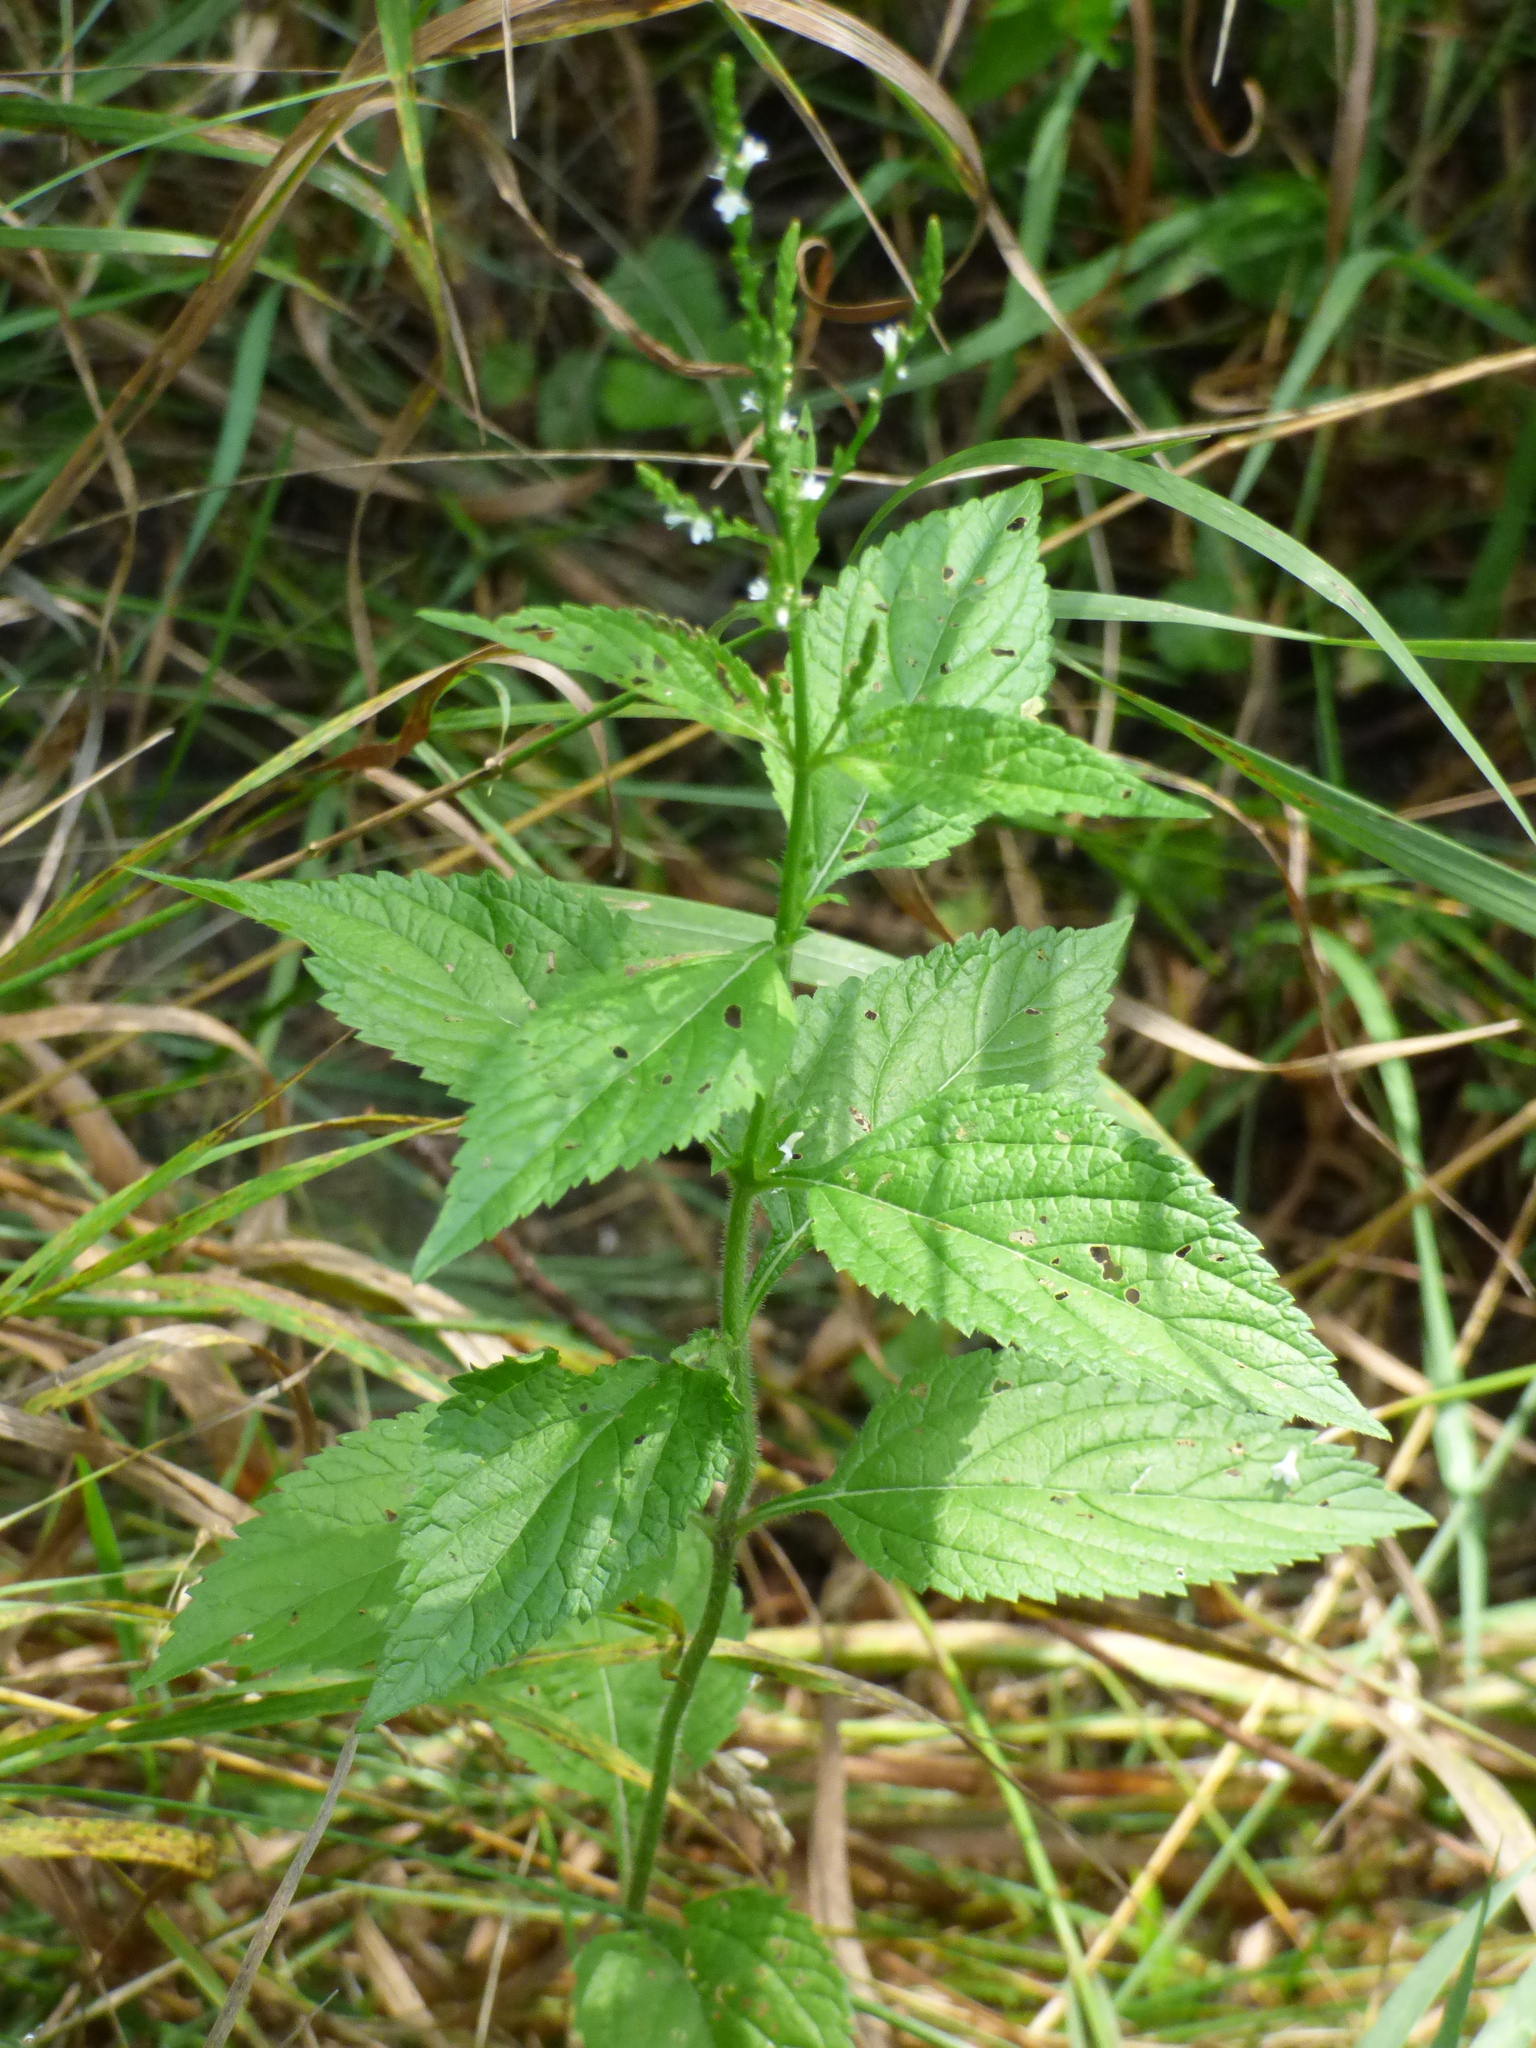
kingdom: Plantae
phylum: Tracheophyta
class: Magnoliopsida
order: Lamiales
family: Verbenaceae
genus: Verbena
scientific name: Verbena urticifolia
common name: Nettle-leaved vervain
